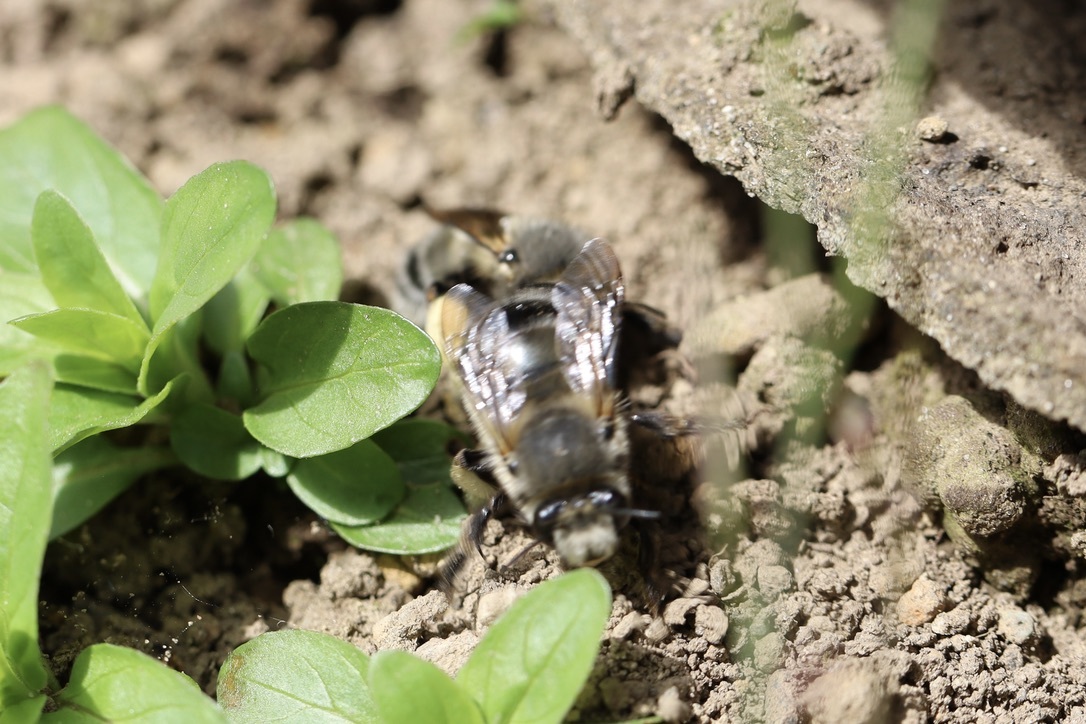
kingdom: Animalia
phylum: Arthropoda
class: Insecta
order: Hymenoptera
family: Apidae
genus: Anthophora
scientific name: Anthophora pacifica
